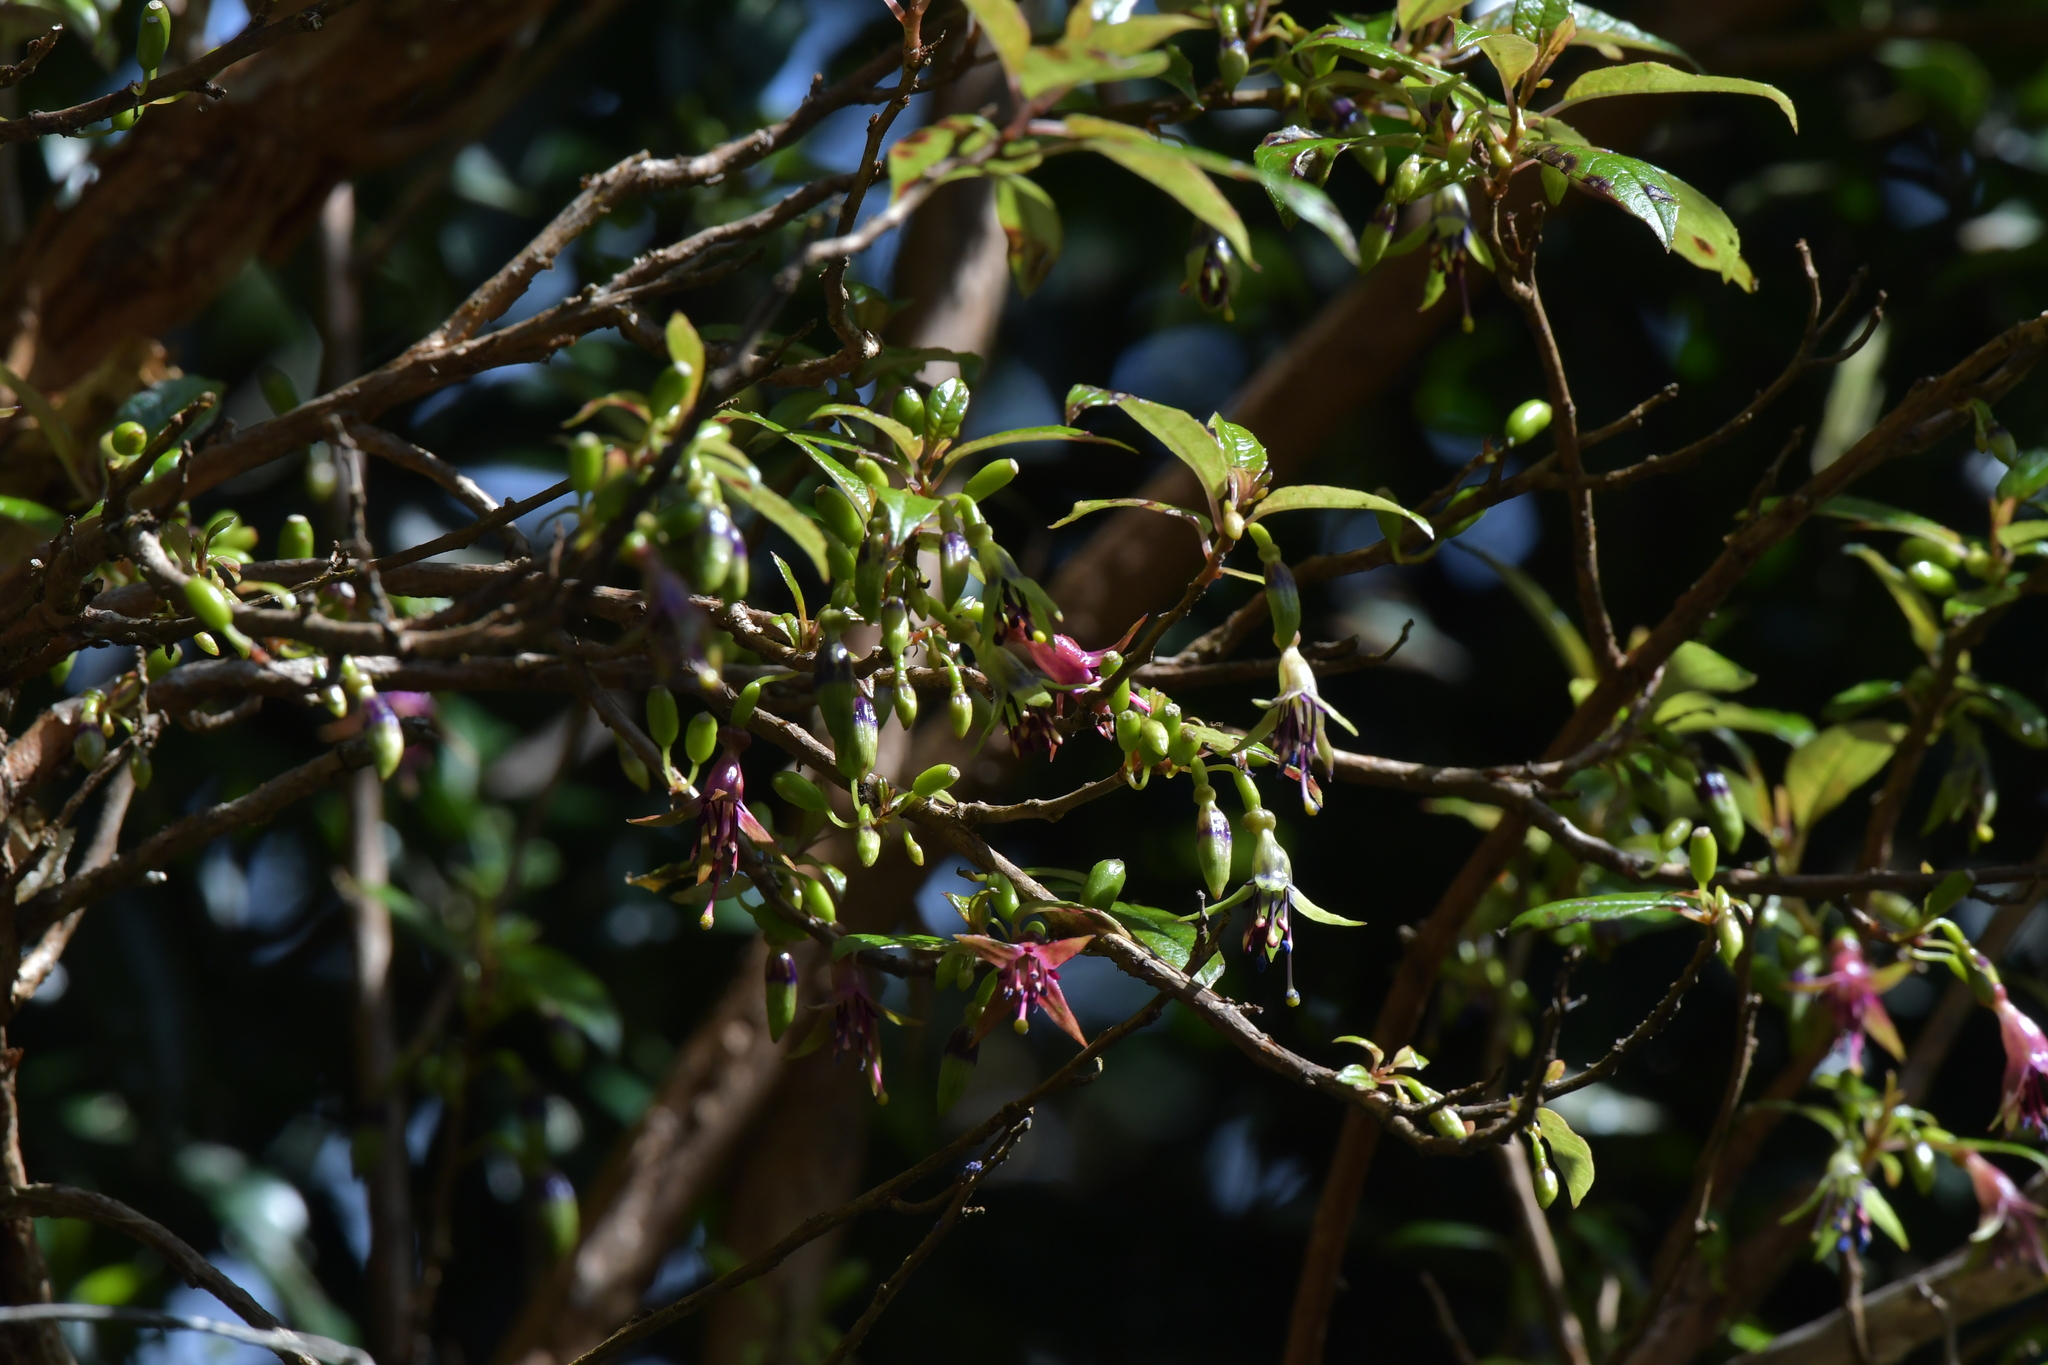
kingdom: Plantae
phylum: Tracheophyta
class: Magnoliopsida
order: Myrtales
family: Onagraceae
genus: Fuchsia
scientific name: Fuchsia excorticata
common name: Tree fuchsia
